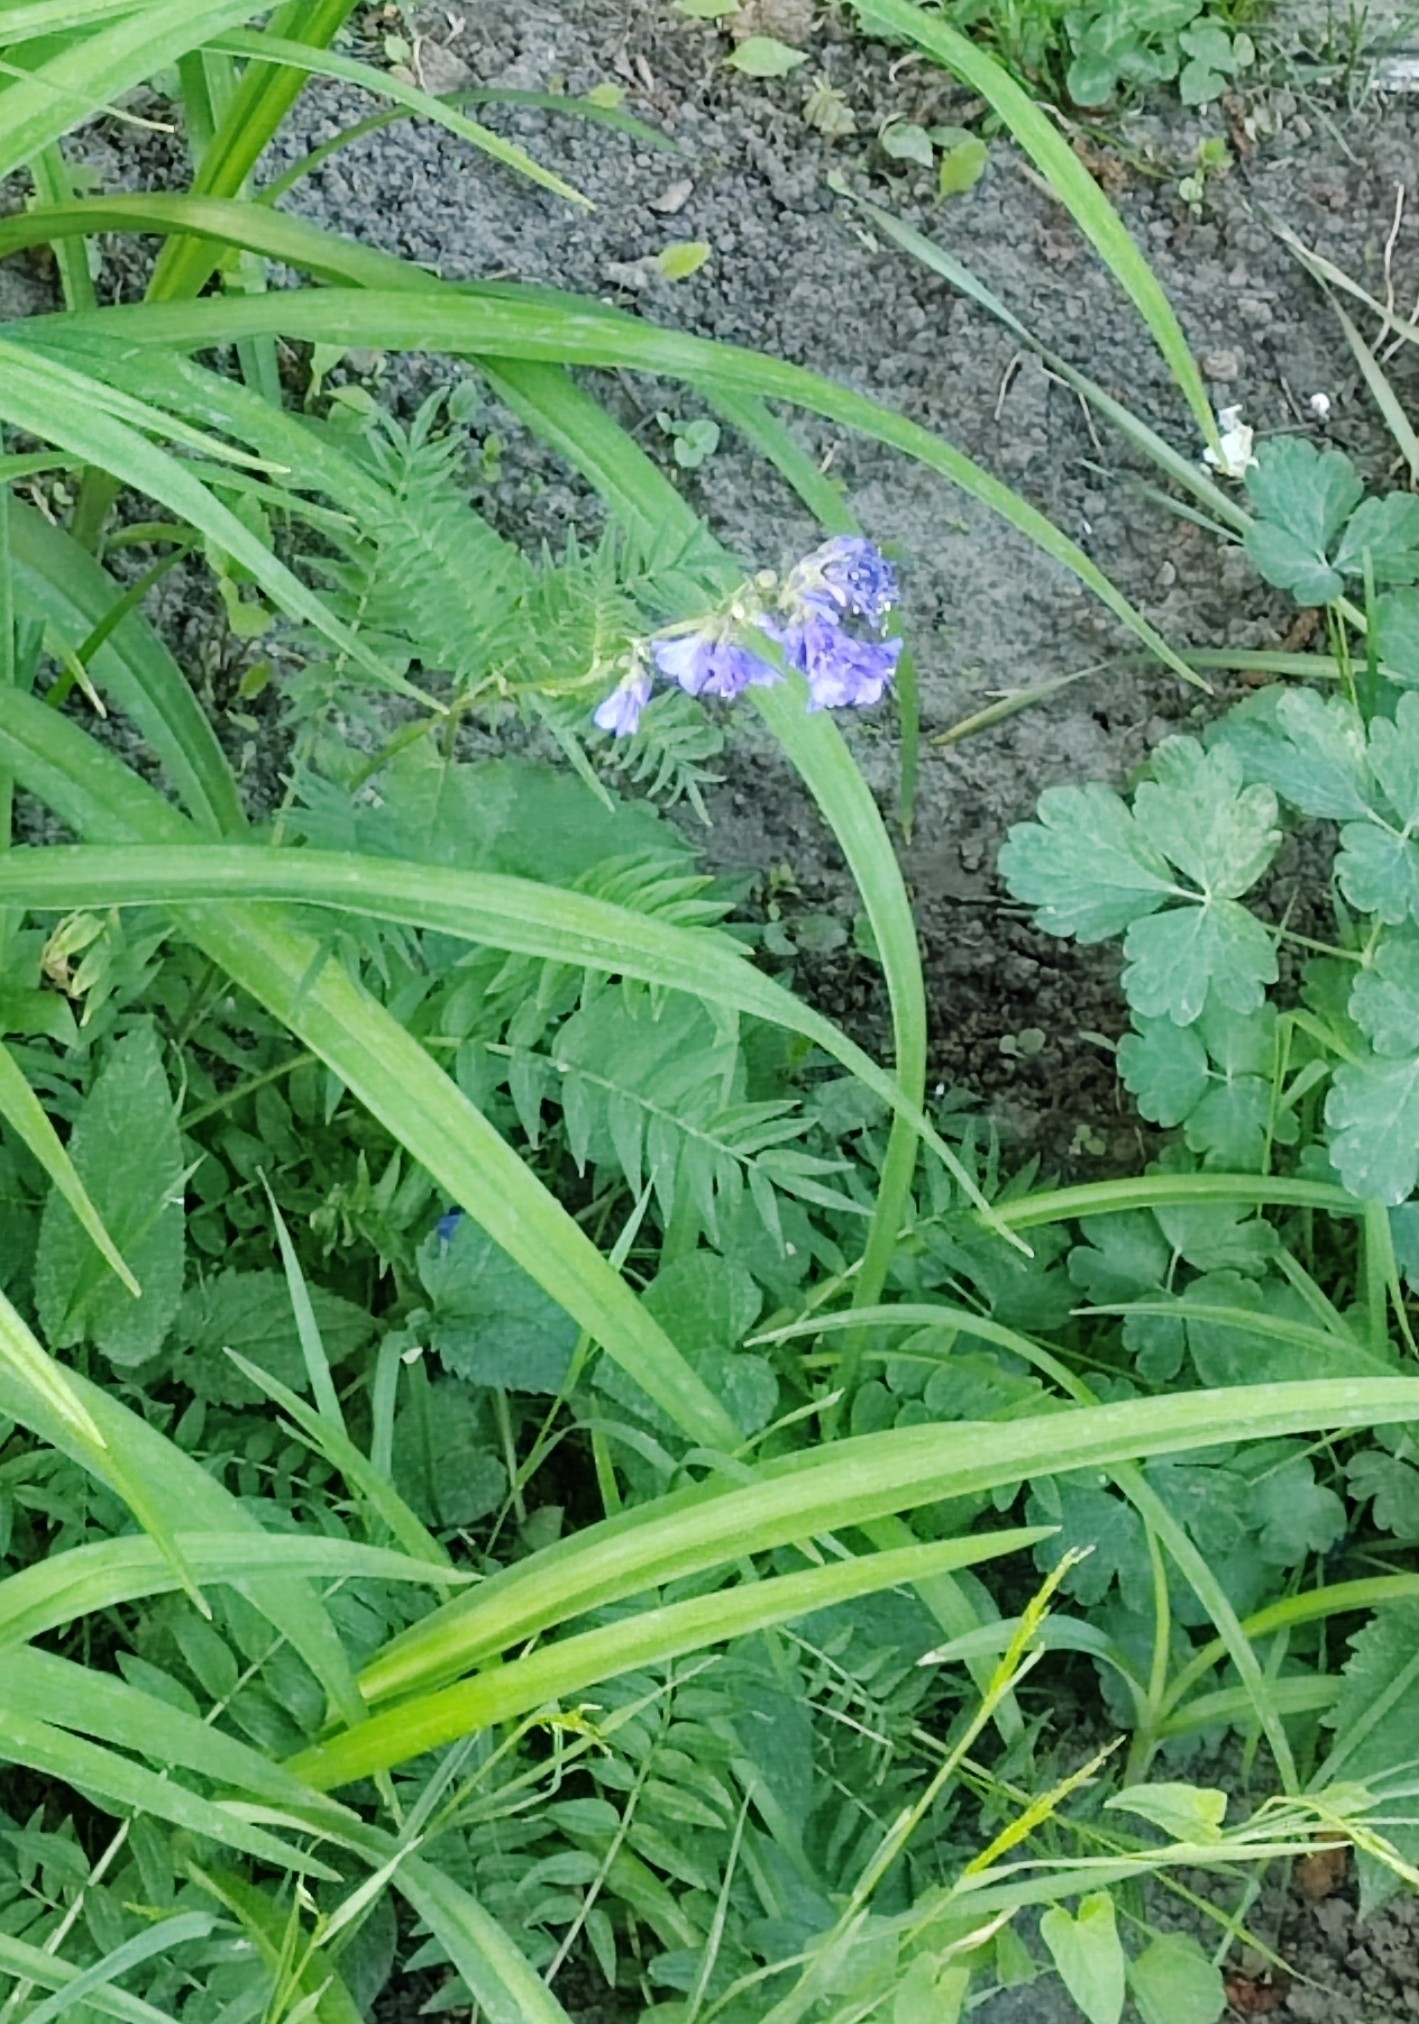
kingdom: Plantae
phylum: Tracheophyta
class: Magnoliopsida
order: Ericales
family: Polemoniaceae
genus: Polemonium
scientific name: Polemonium caeruleum
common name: Jacob's-ladder
